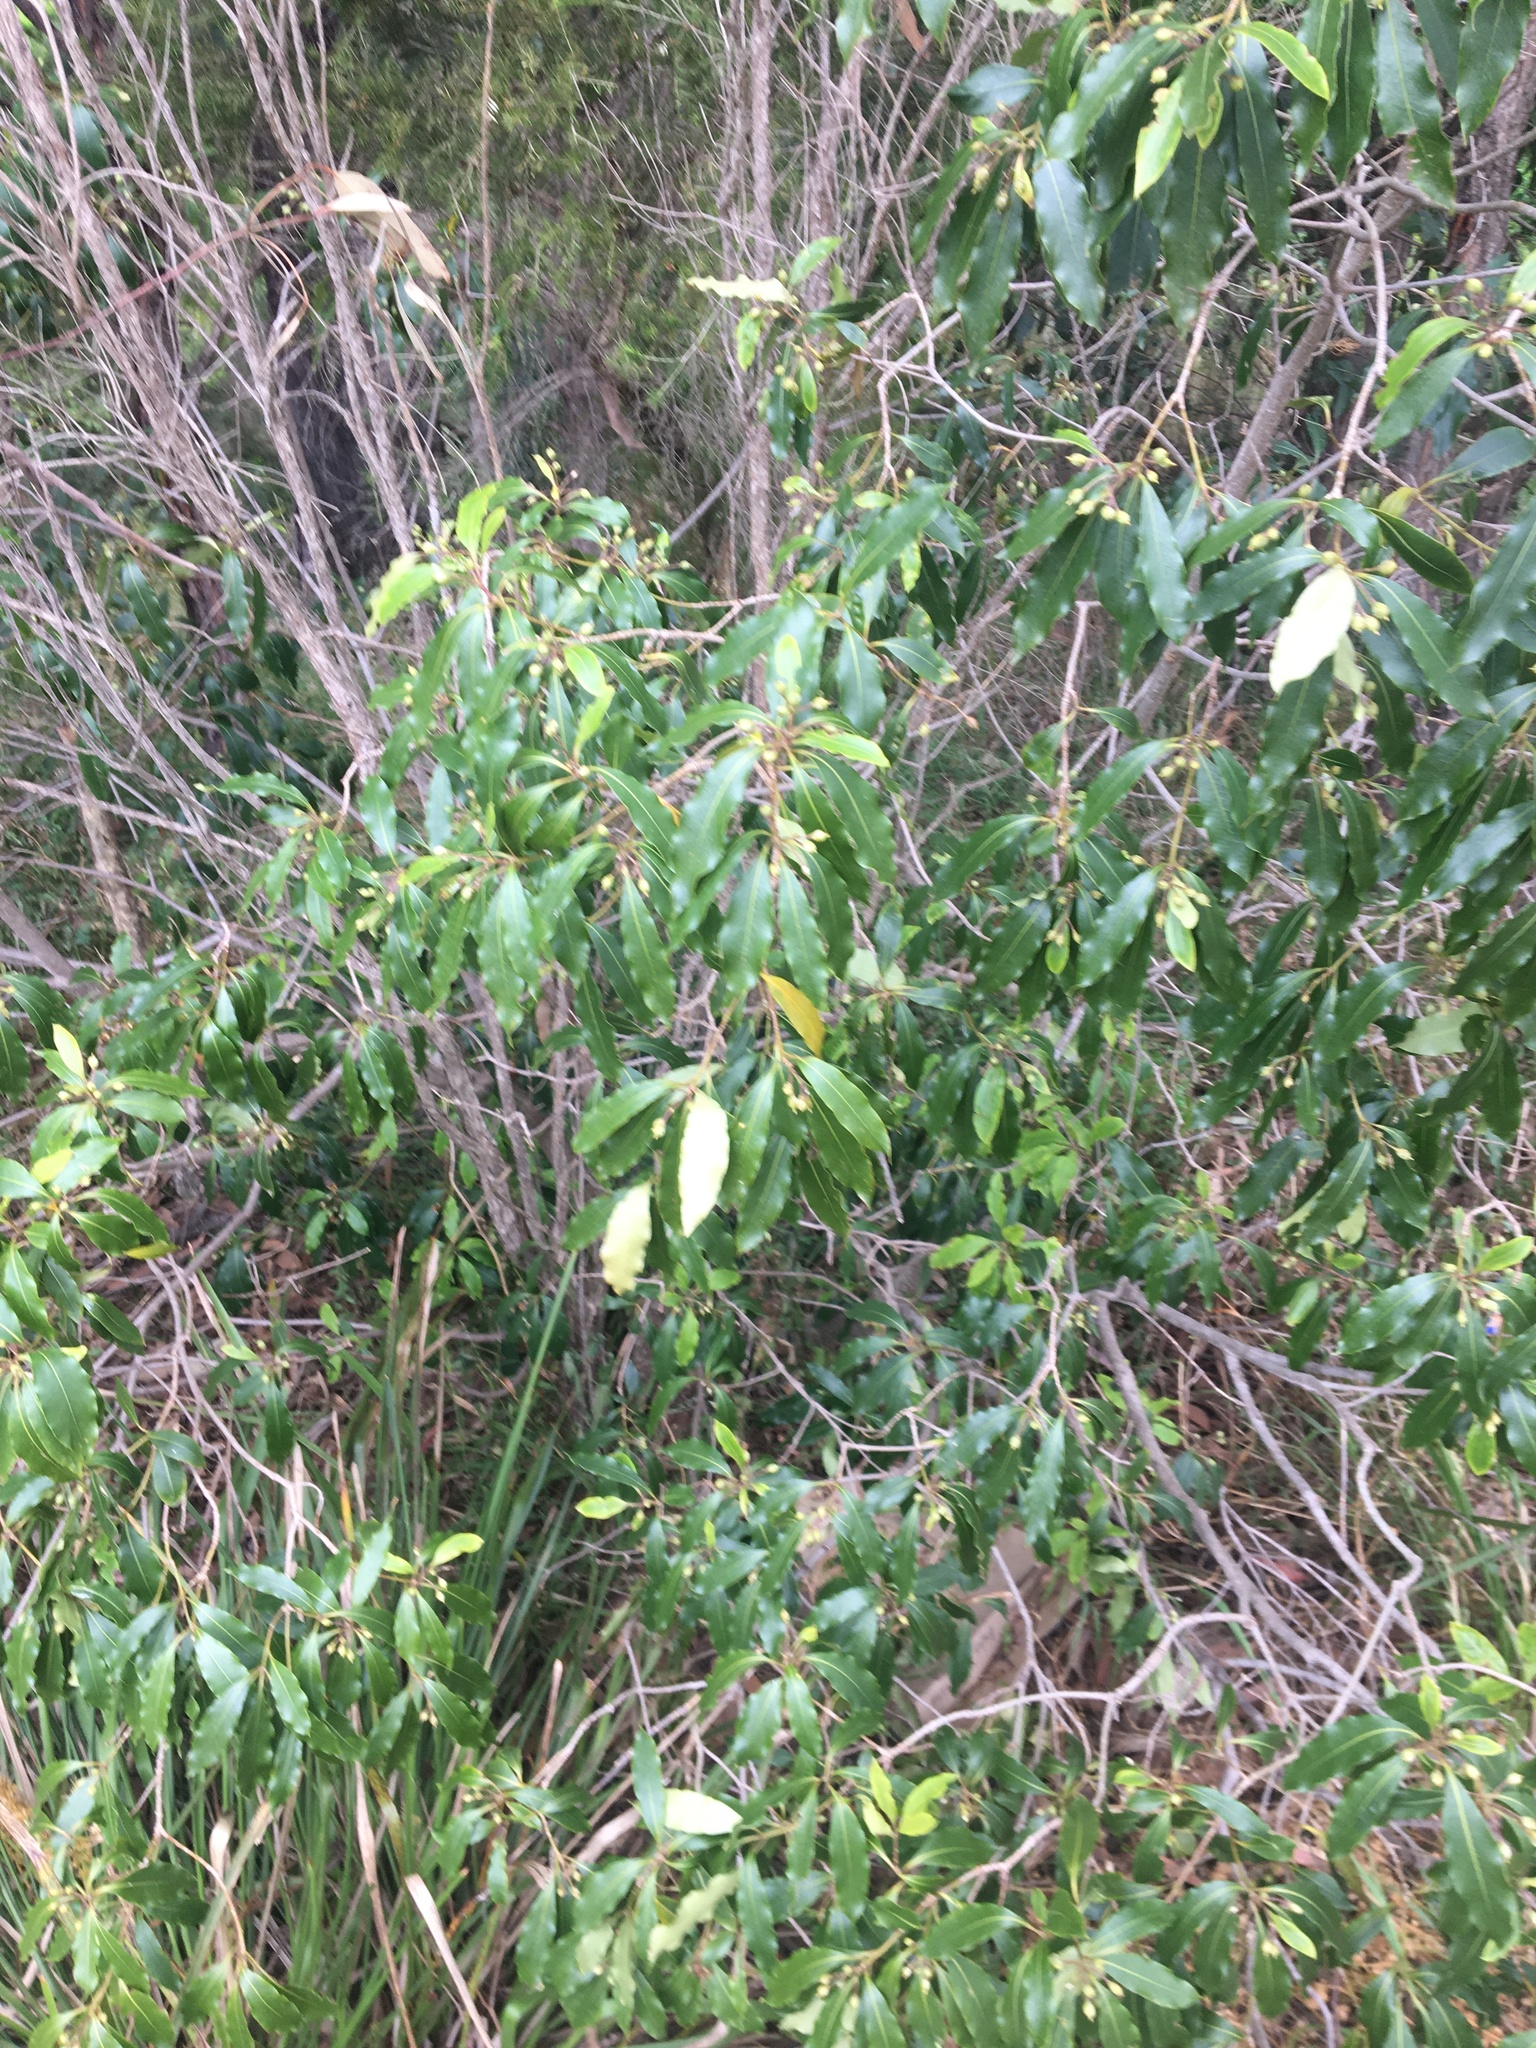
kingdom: Plantae
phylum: Tracheophyta
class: Magnoliopsida
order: Apiales
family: Pittosporaceae
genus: Pittosporum
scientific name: Pittosporum undulatum
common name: Australian cheesewood
